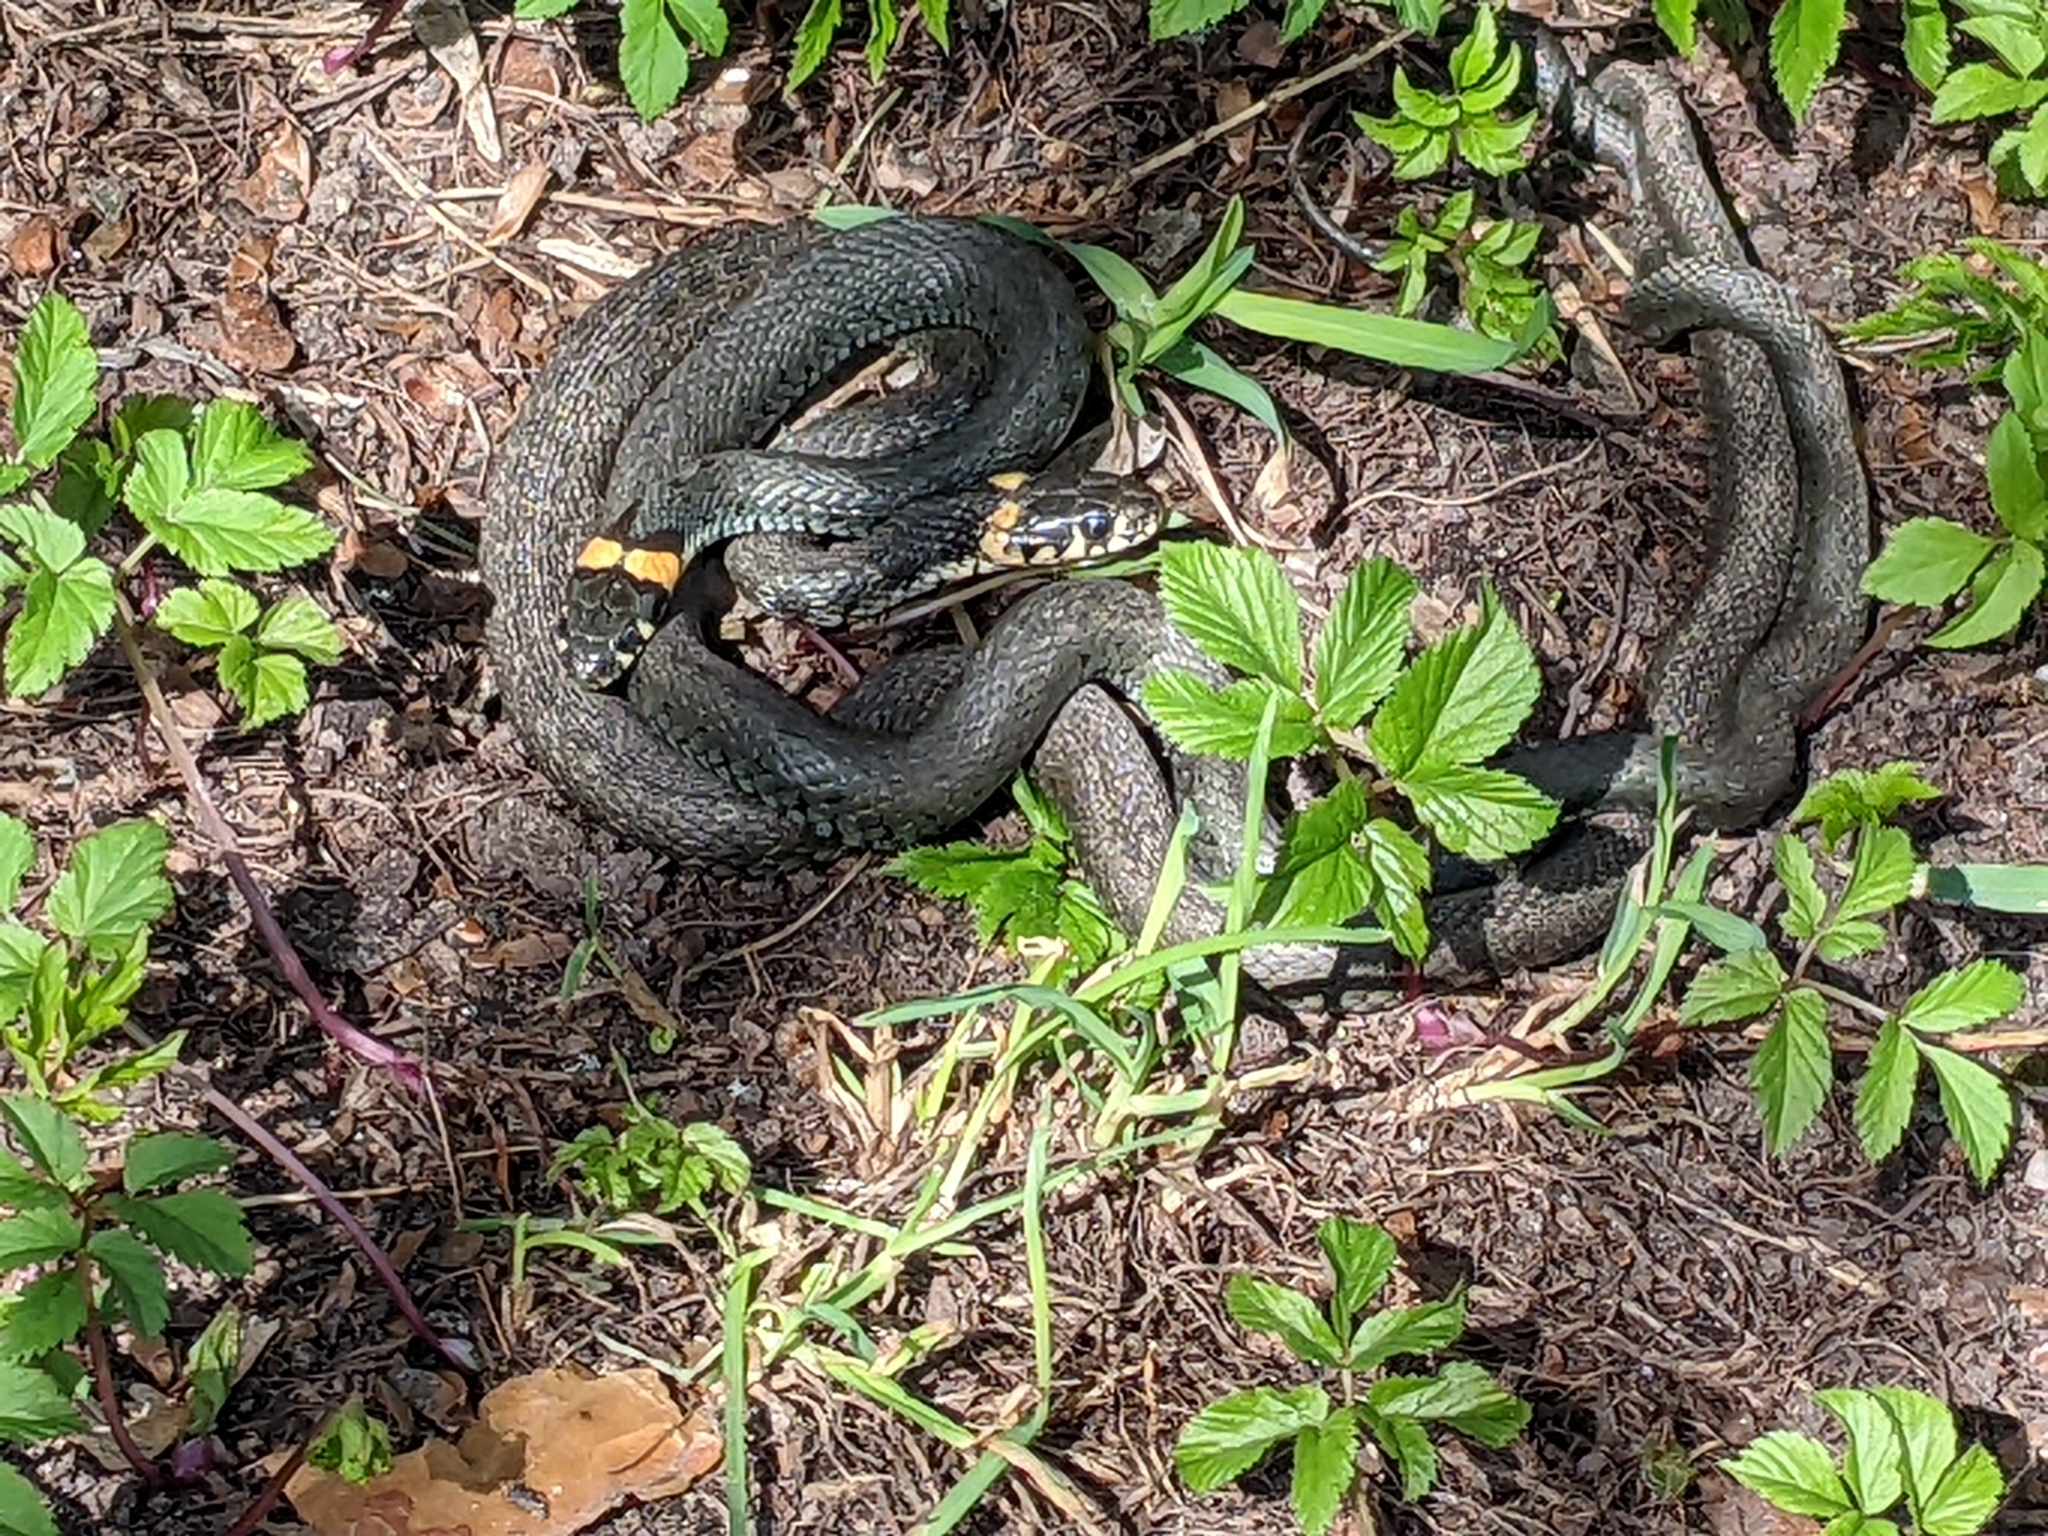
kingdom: Animalia
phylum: Chordata
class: Squamata
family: Colubridae
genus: Natrix
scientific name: Natrix natrix
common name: Grass snake
